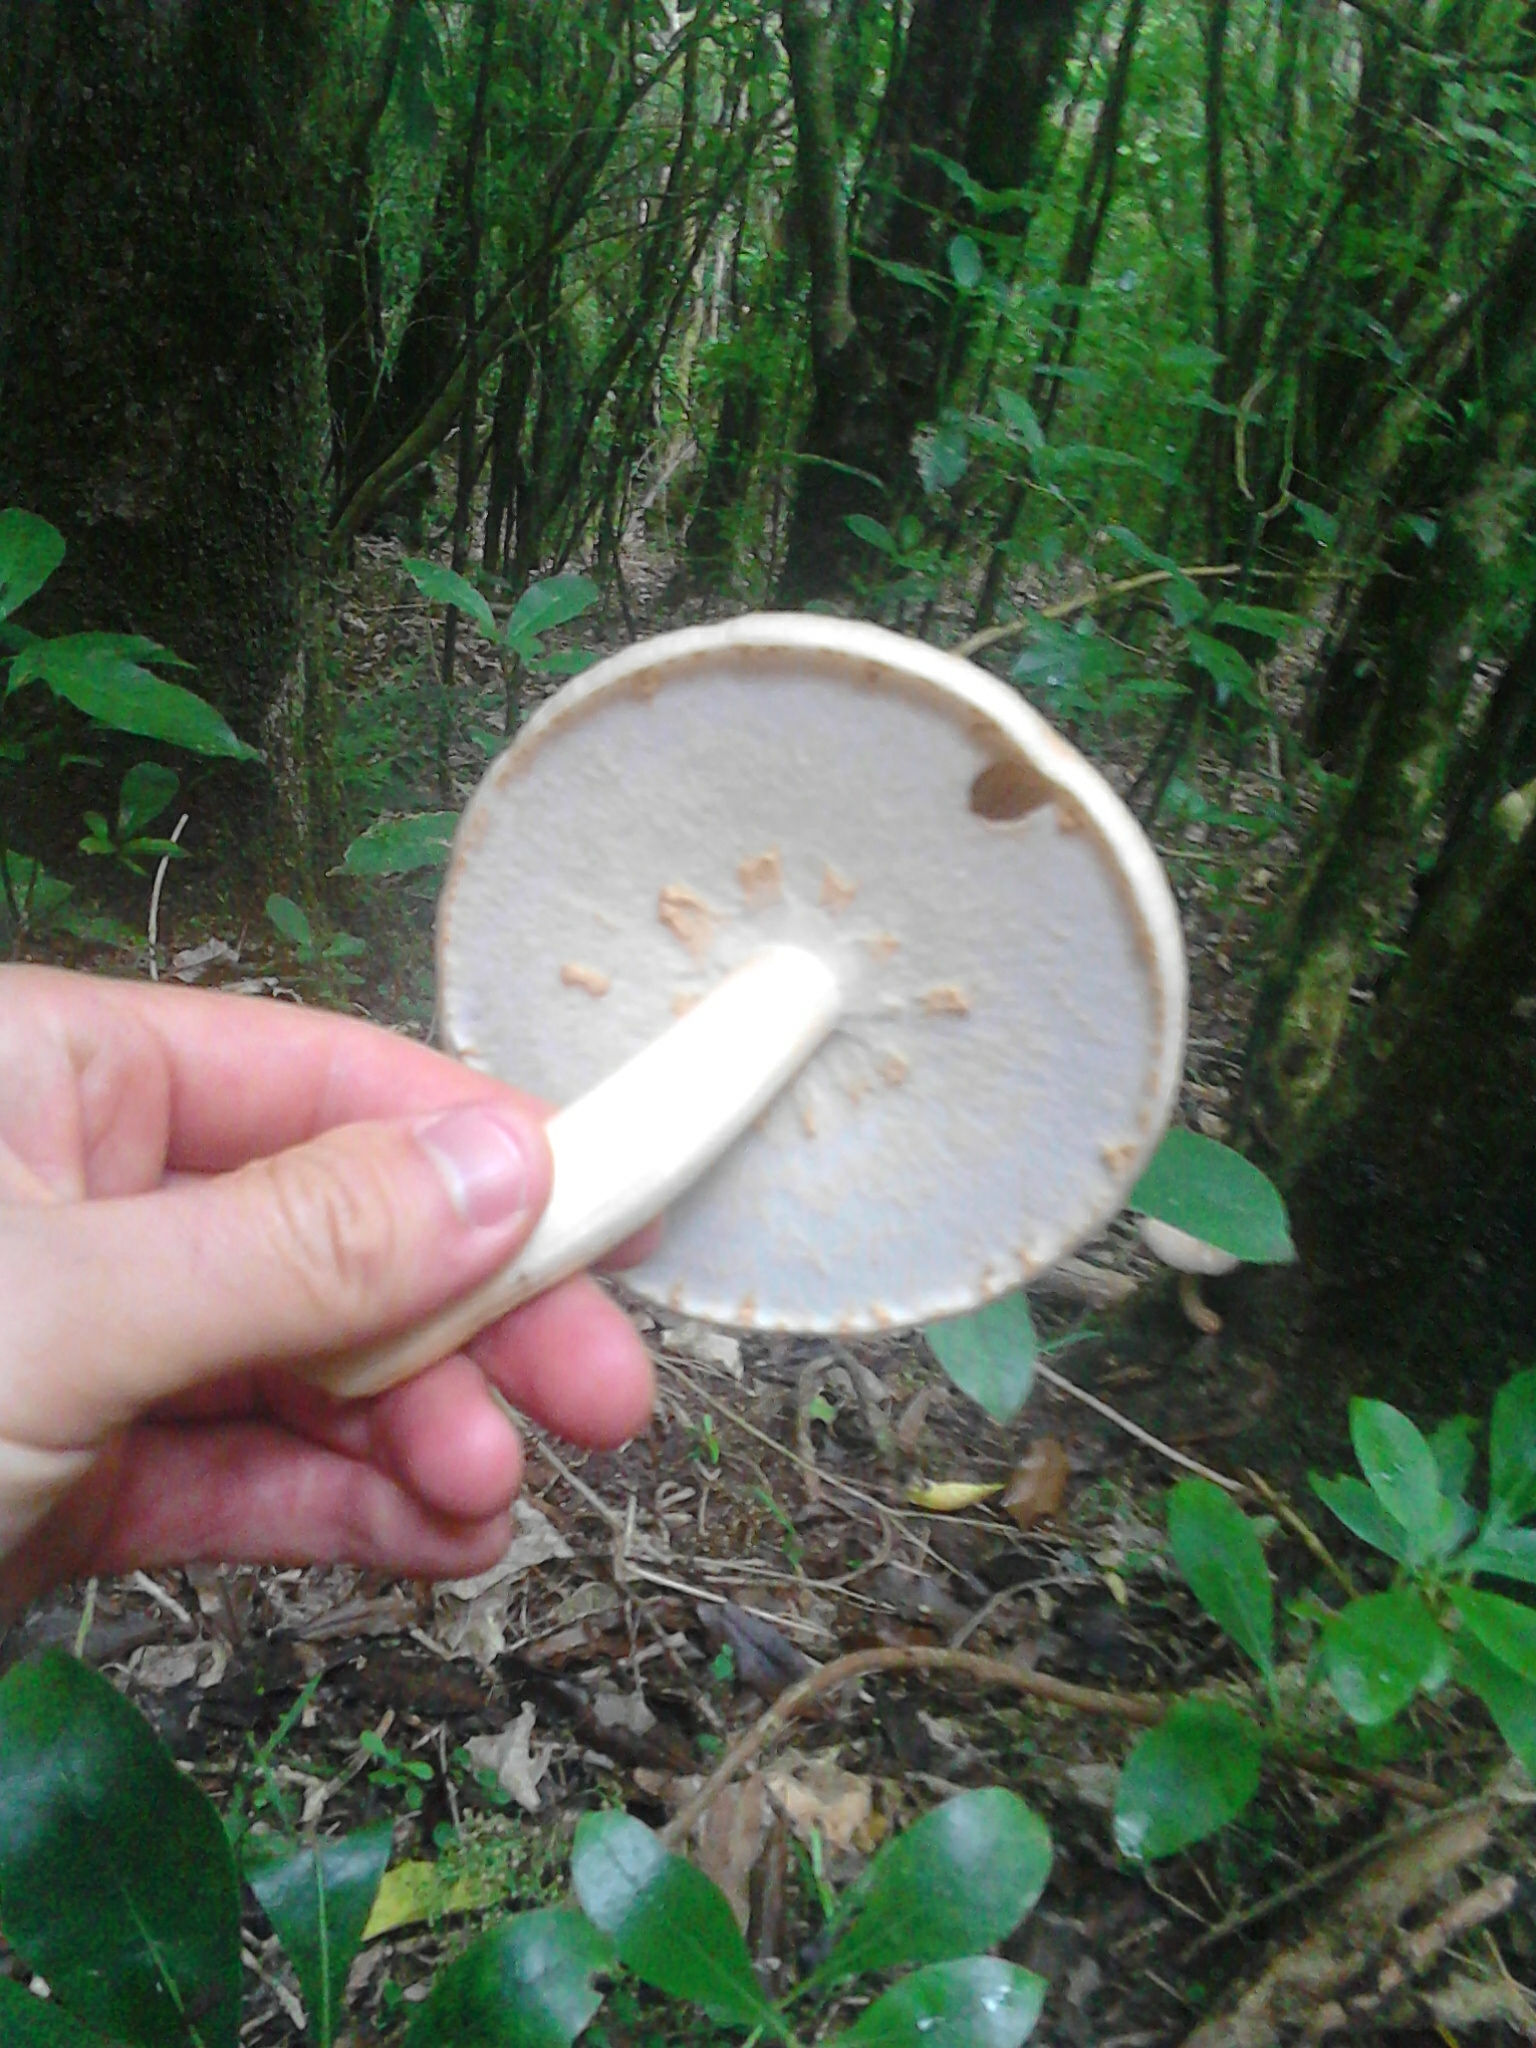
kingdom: Fungi
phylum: Basidiomycota
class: Agaricomycetes
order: Agaricales
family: Tubariaceae
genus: Cyclocybe
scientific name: Cyclocybe parasitica
